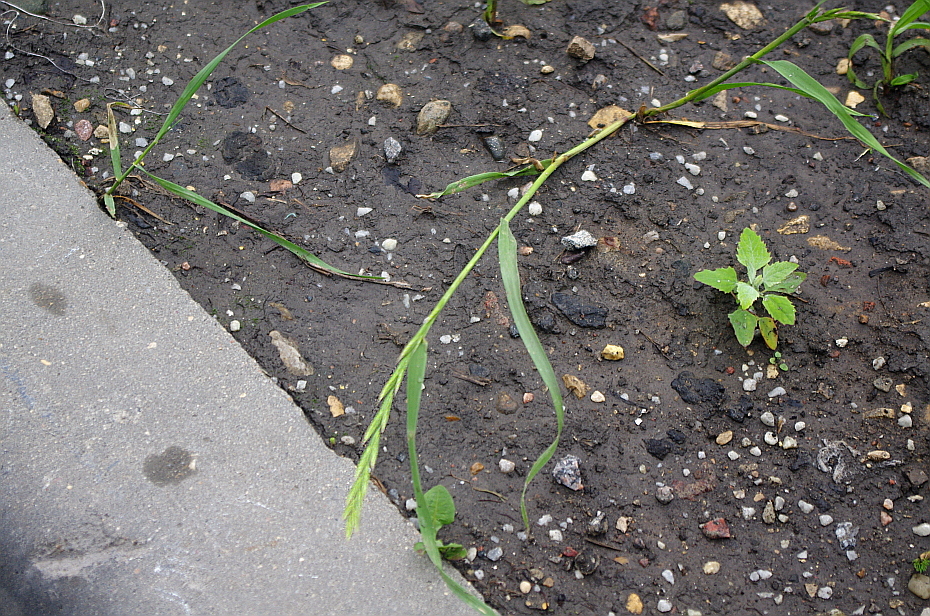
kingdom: Plantae
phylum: Tracheophyta
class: Liliopsida
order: Poales
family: Poaceae
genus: Elymus
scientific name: Elymus repens
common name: Quackgrass
